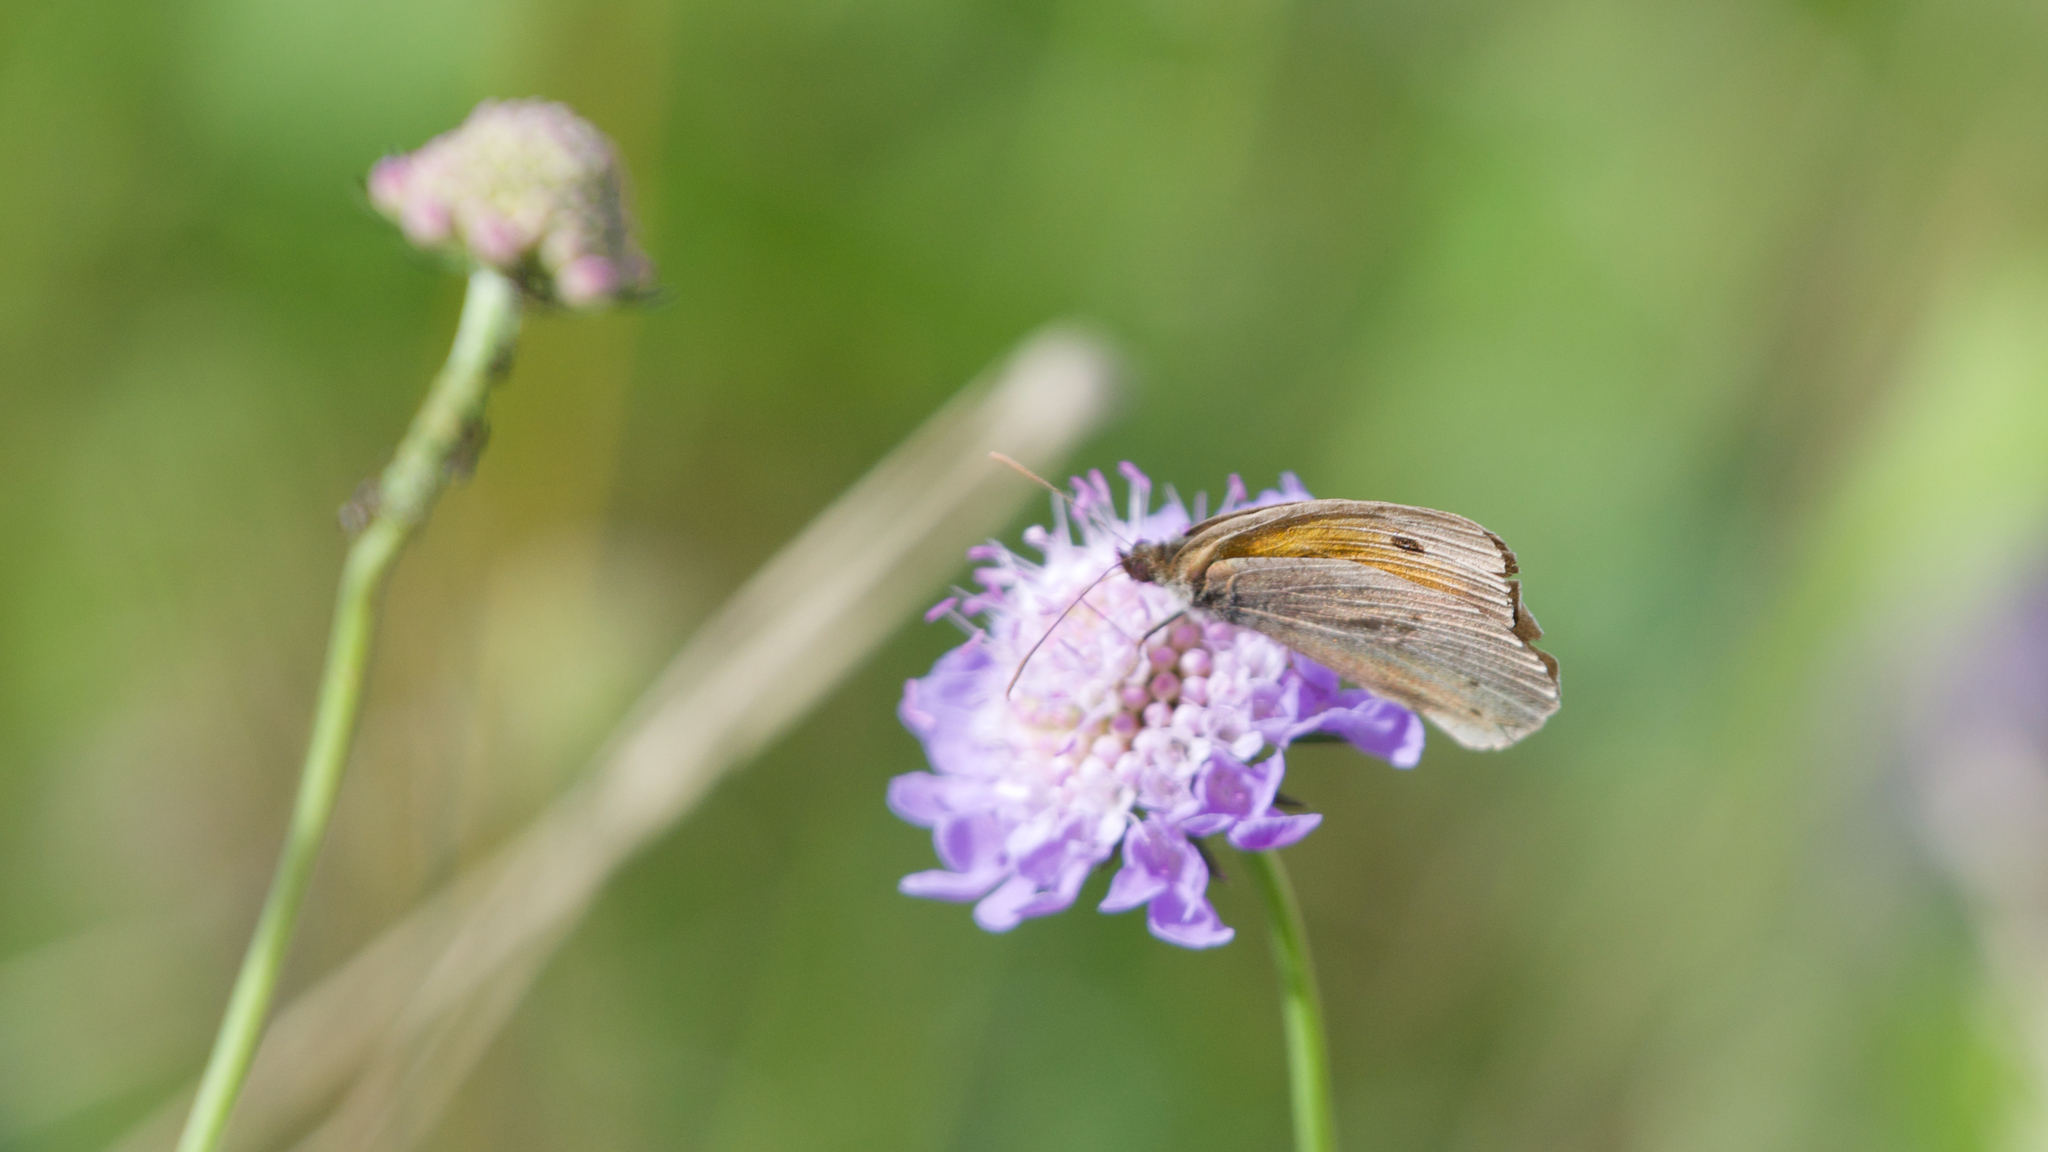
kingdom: Animalia
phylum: Arthropoda
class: Insecta
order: Lepidoptera
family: Nymphalidae
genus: Maniola
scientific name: Maniola jurtina
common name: Meadow brown
